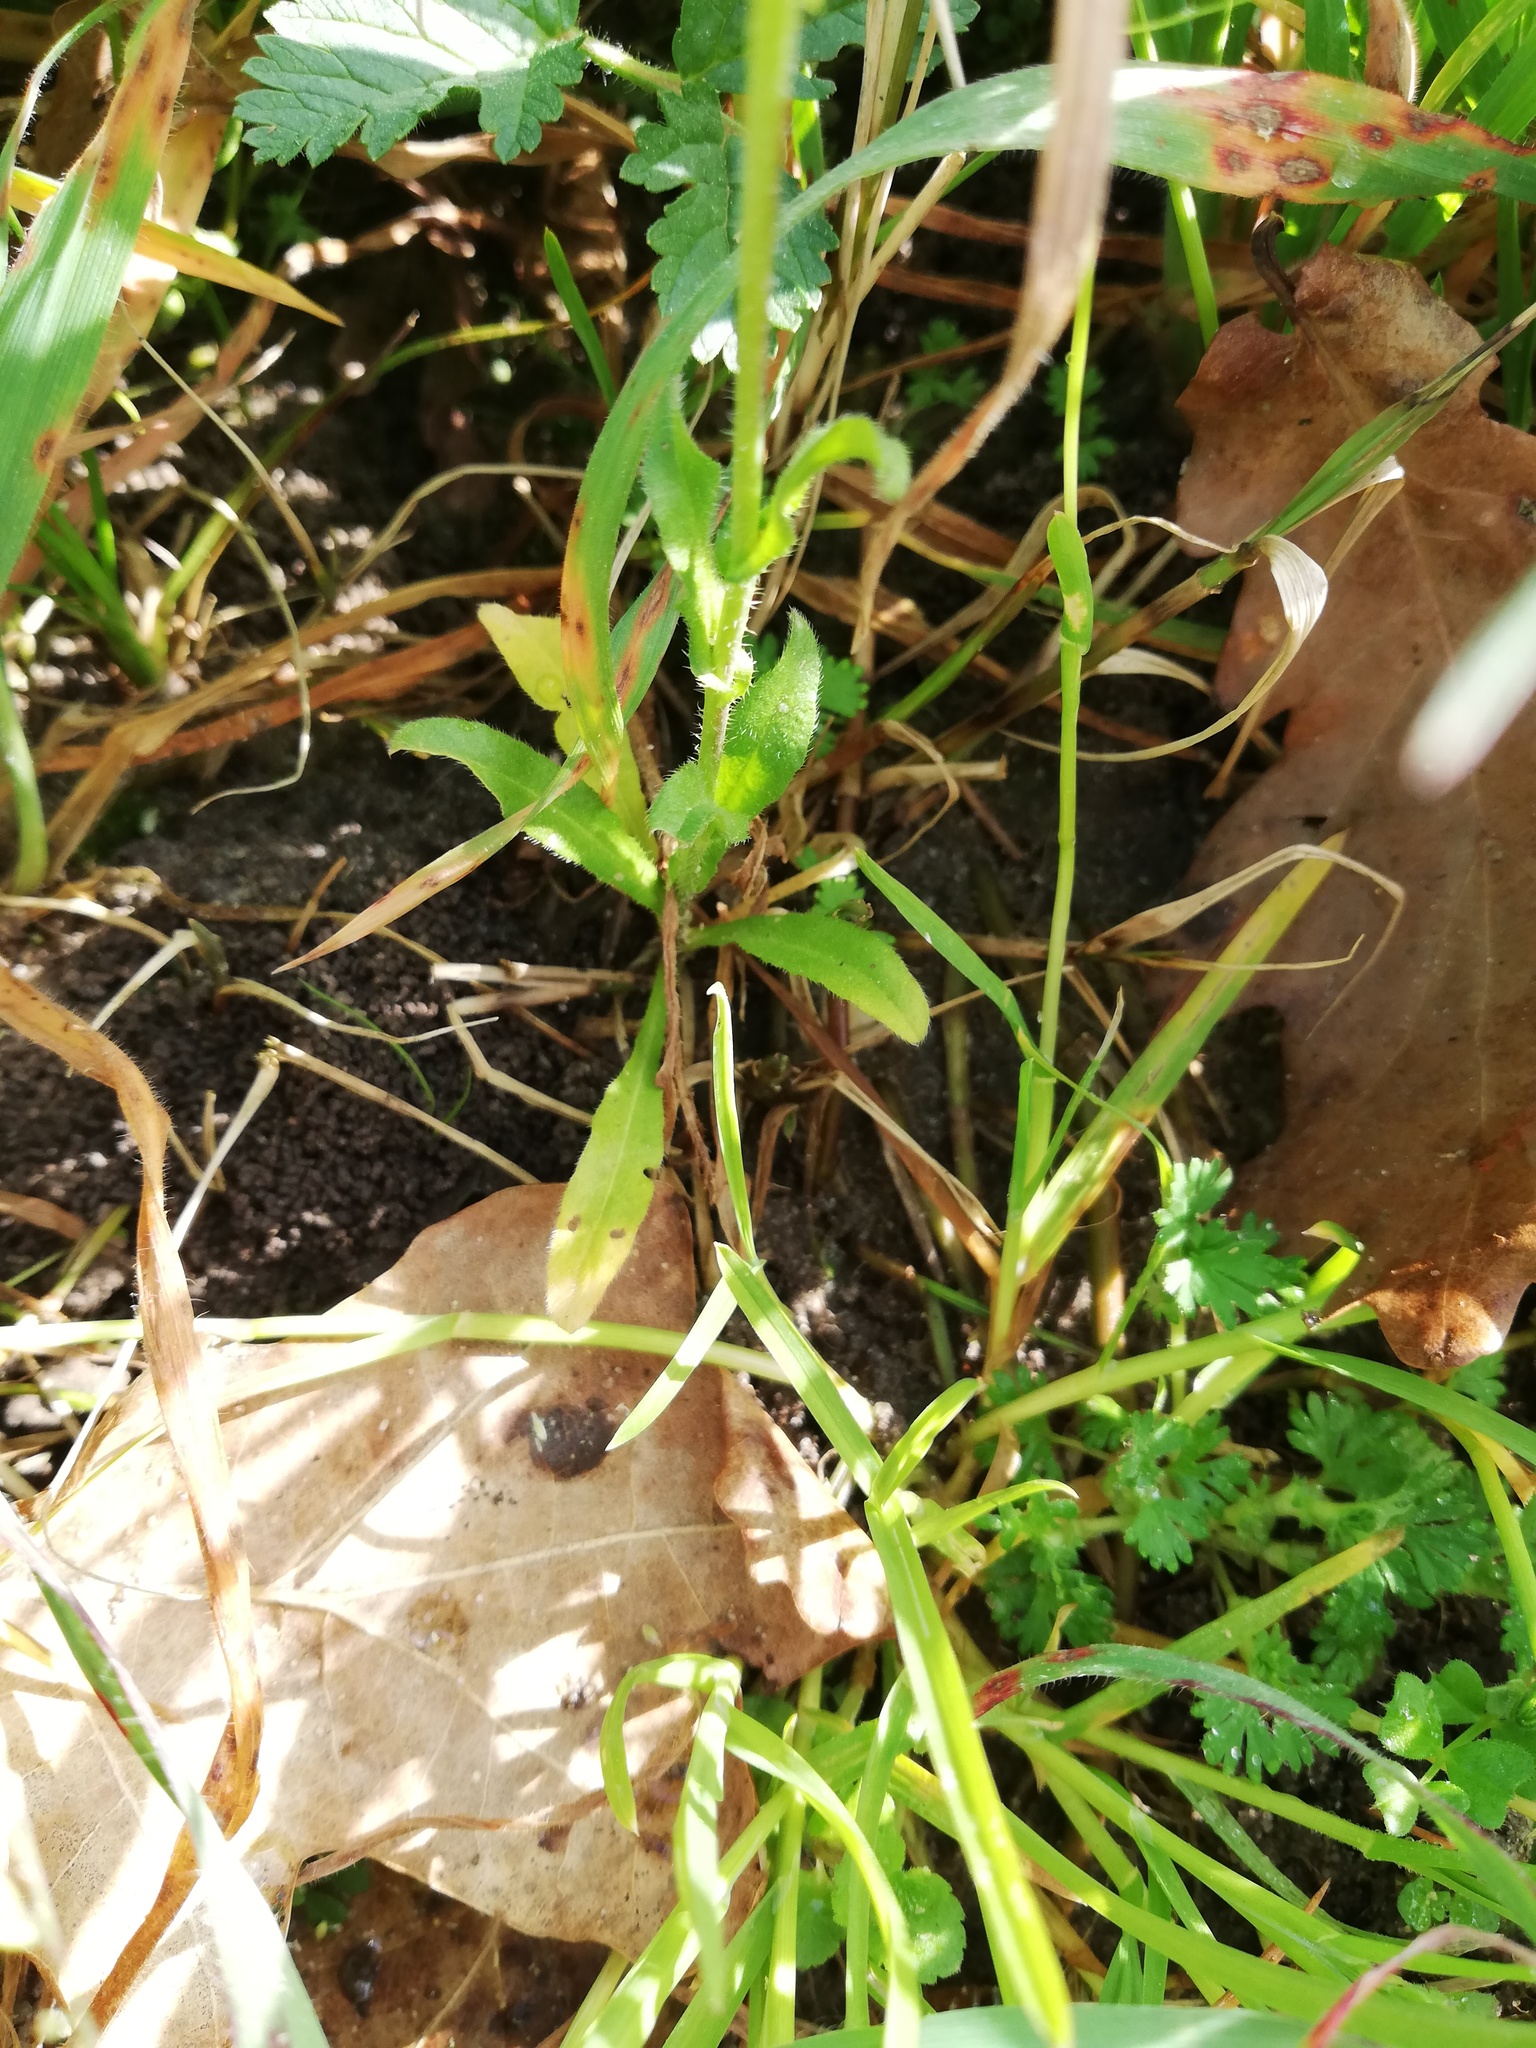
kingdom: Plantae
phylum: Tracheophyta
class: Magnoliopsida
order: Brassicales
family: Brassicaceae
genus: Capsella
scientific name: Capsella bursa-pastoris
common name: Shepherd's purse
